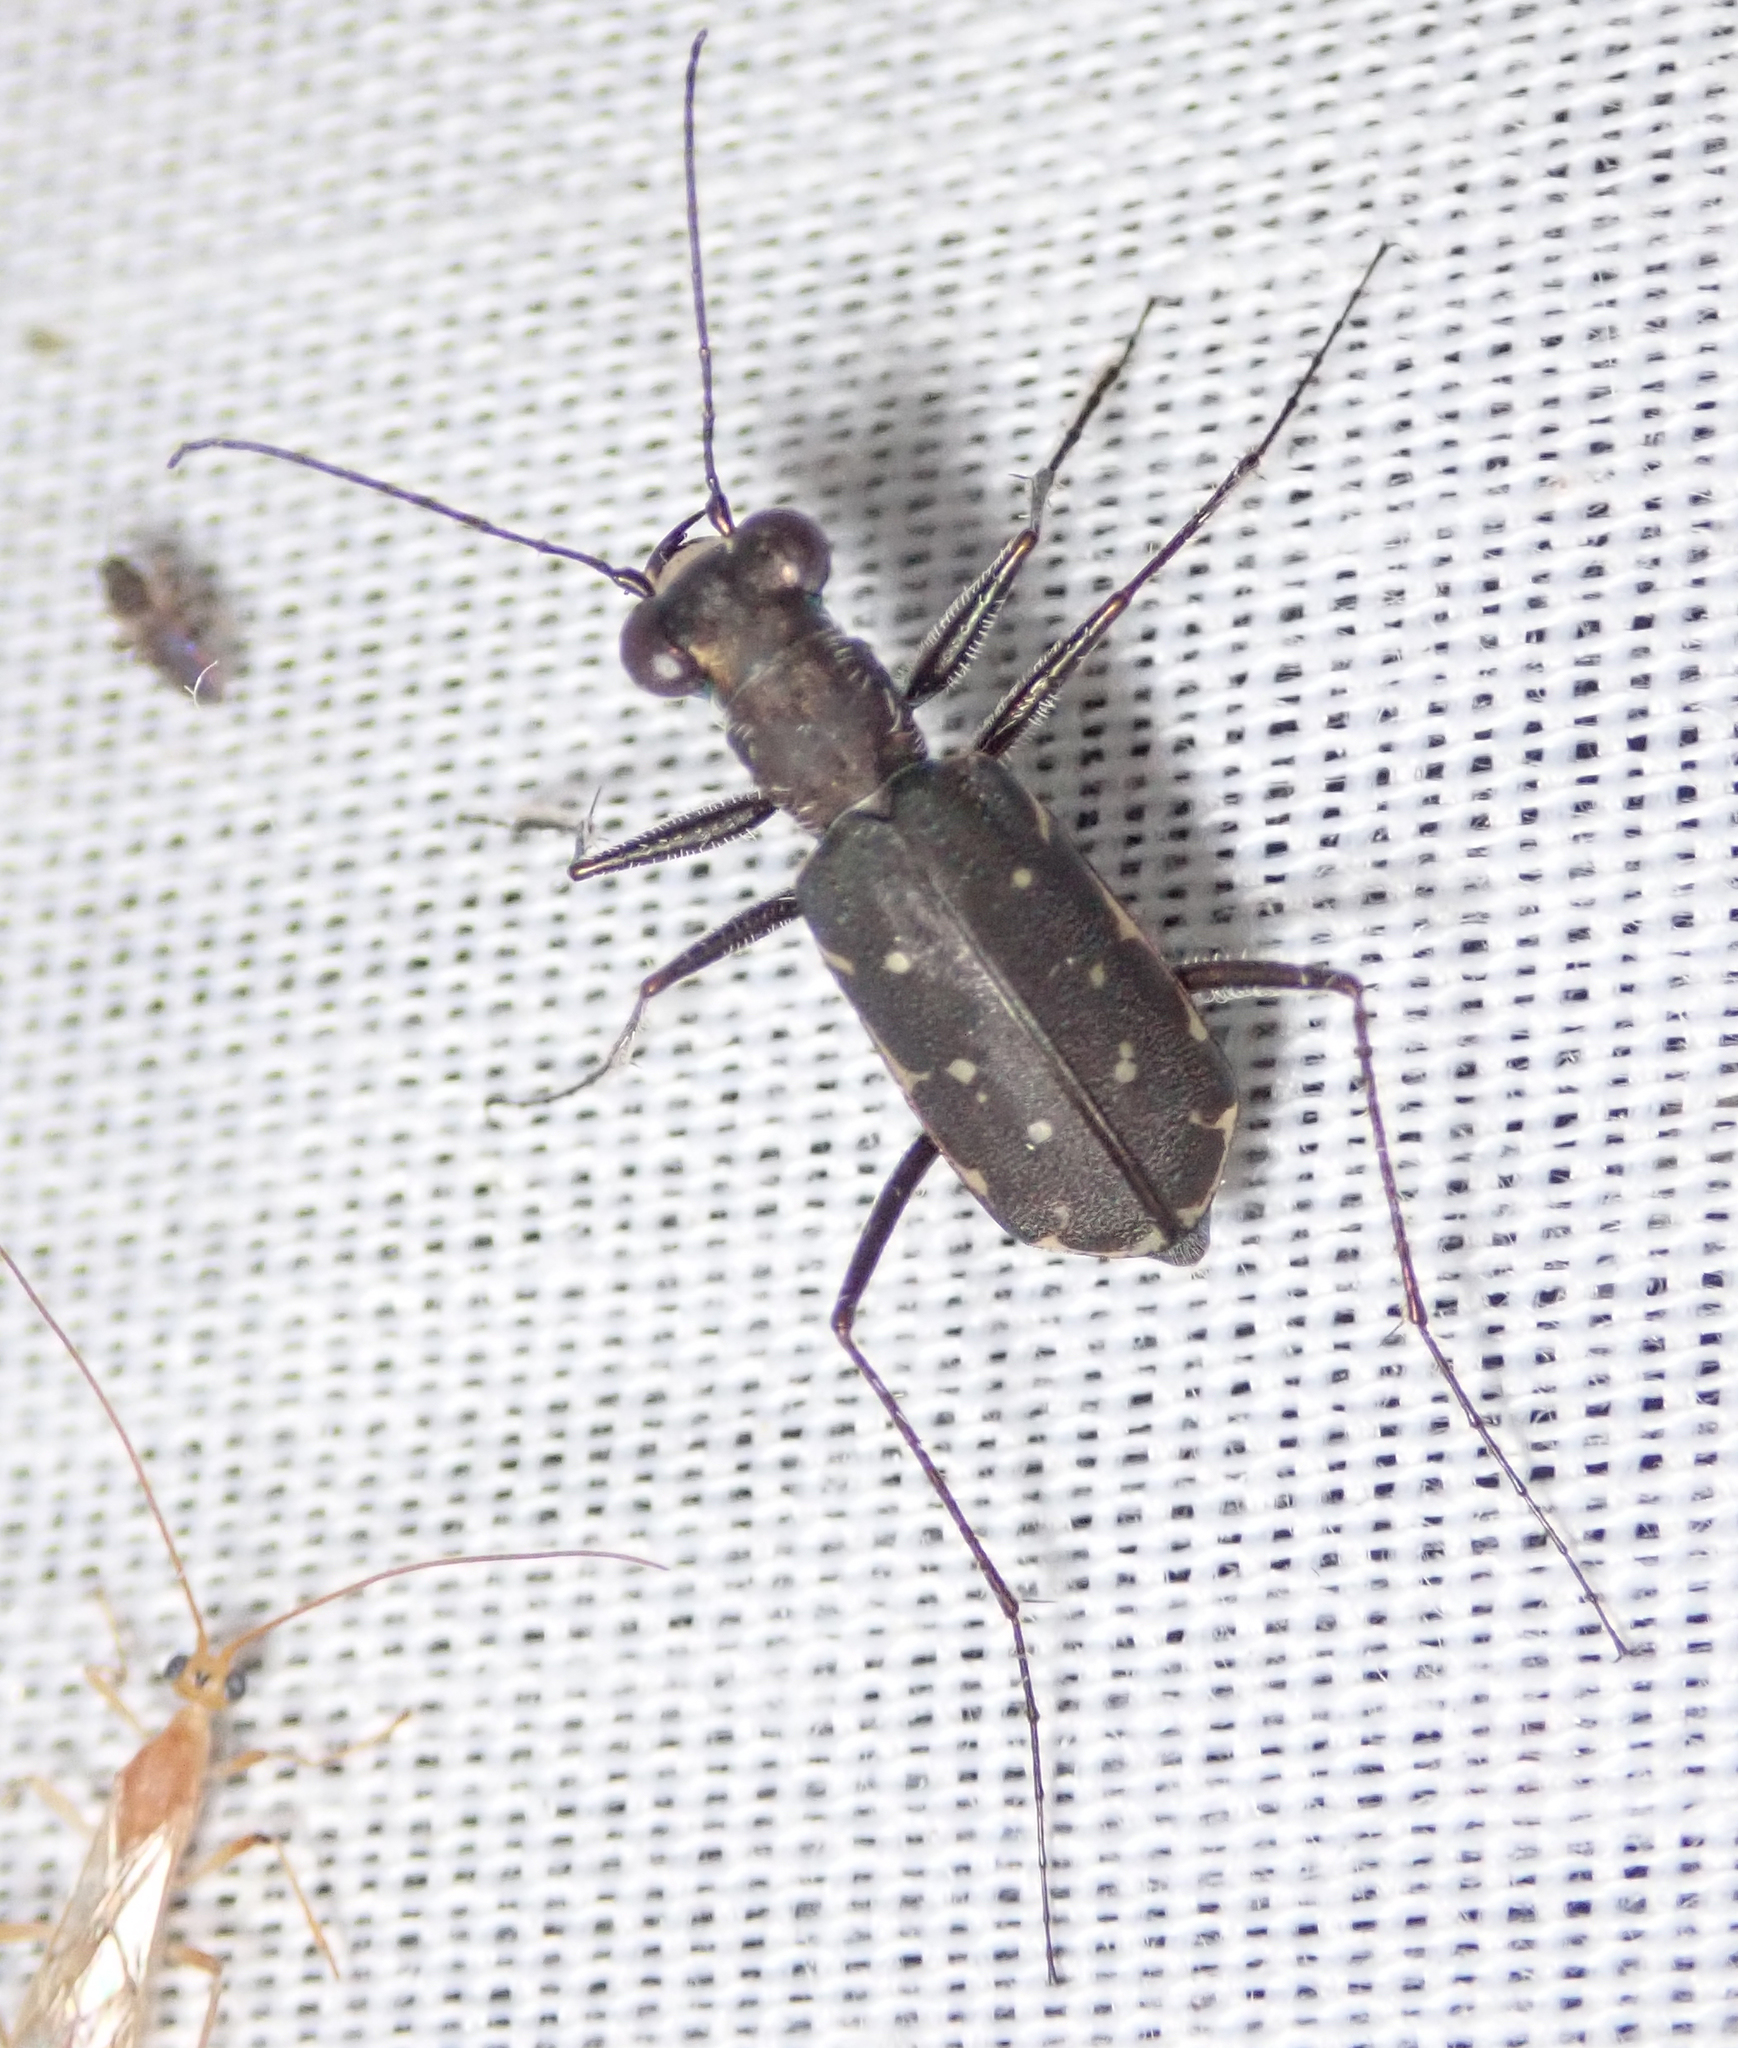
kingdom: Animalia
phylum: Arthropoda
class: Insecta
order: Coleoptera
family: Carabidae
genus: Myriochila
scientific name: Myriochila melancholica
